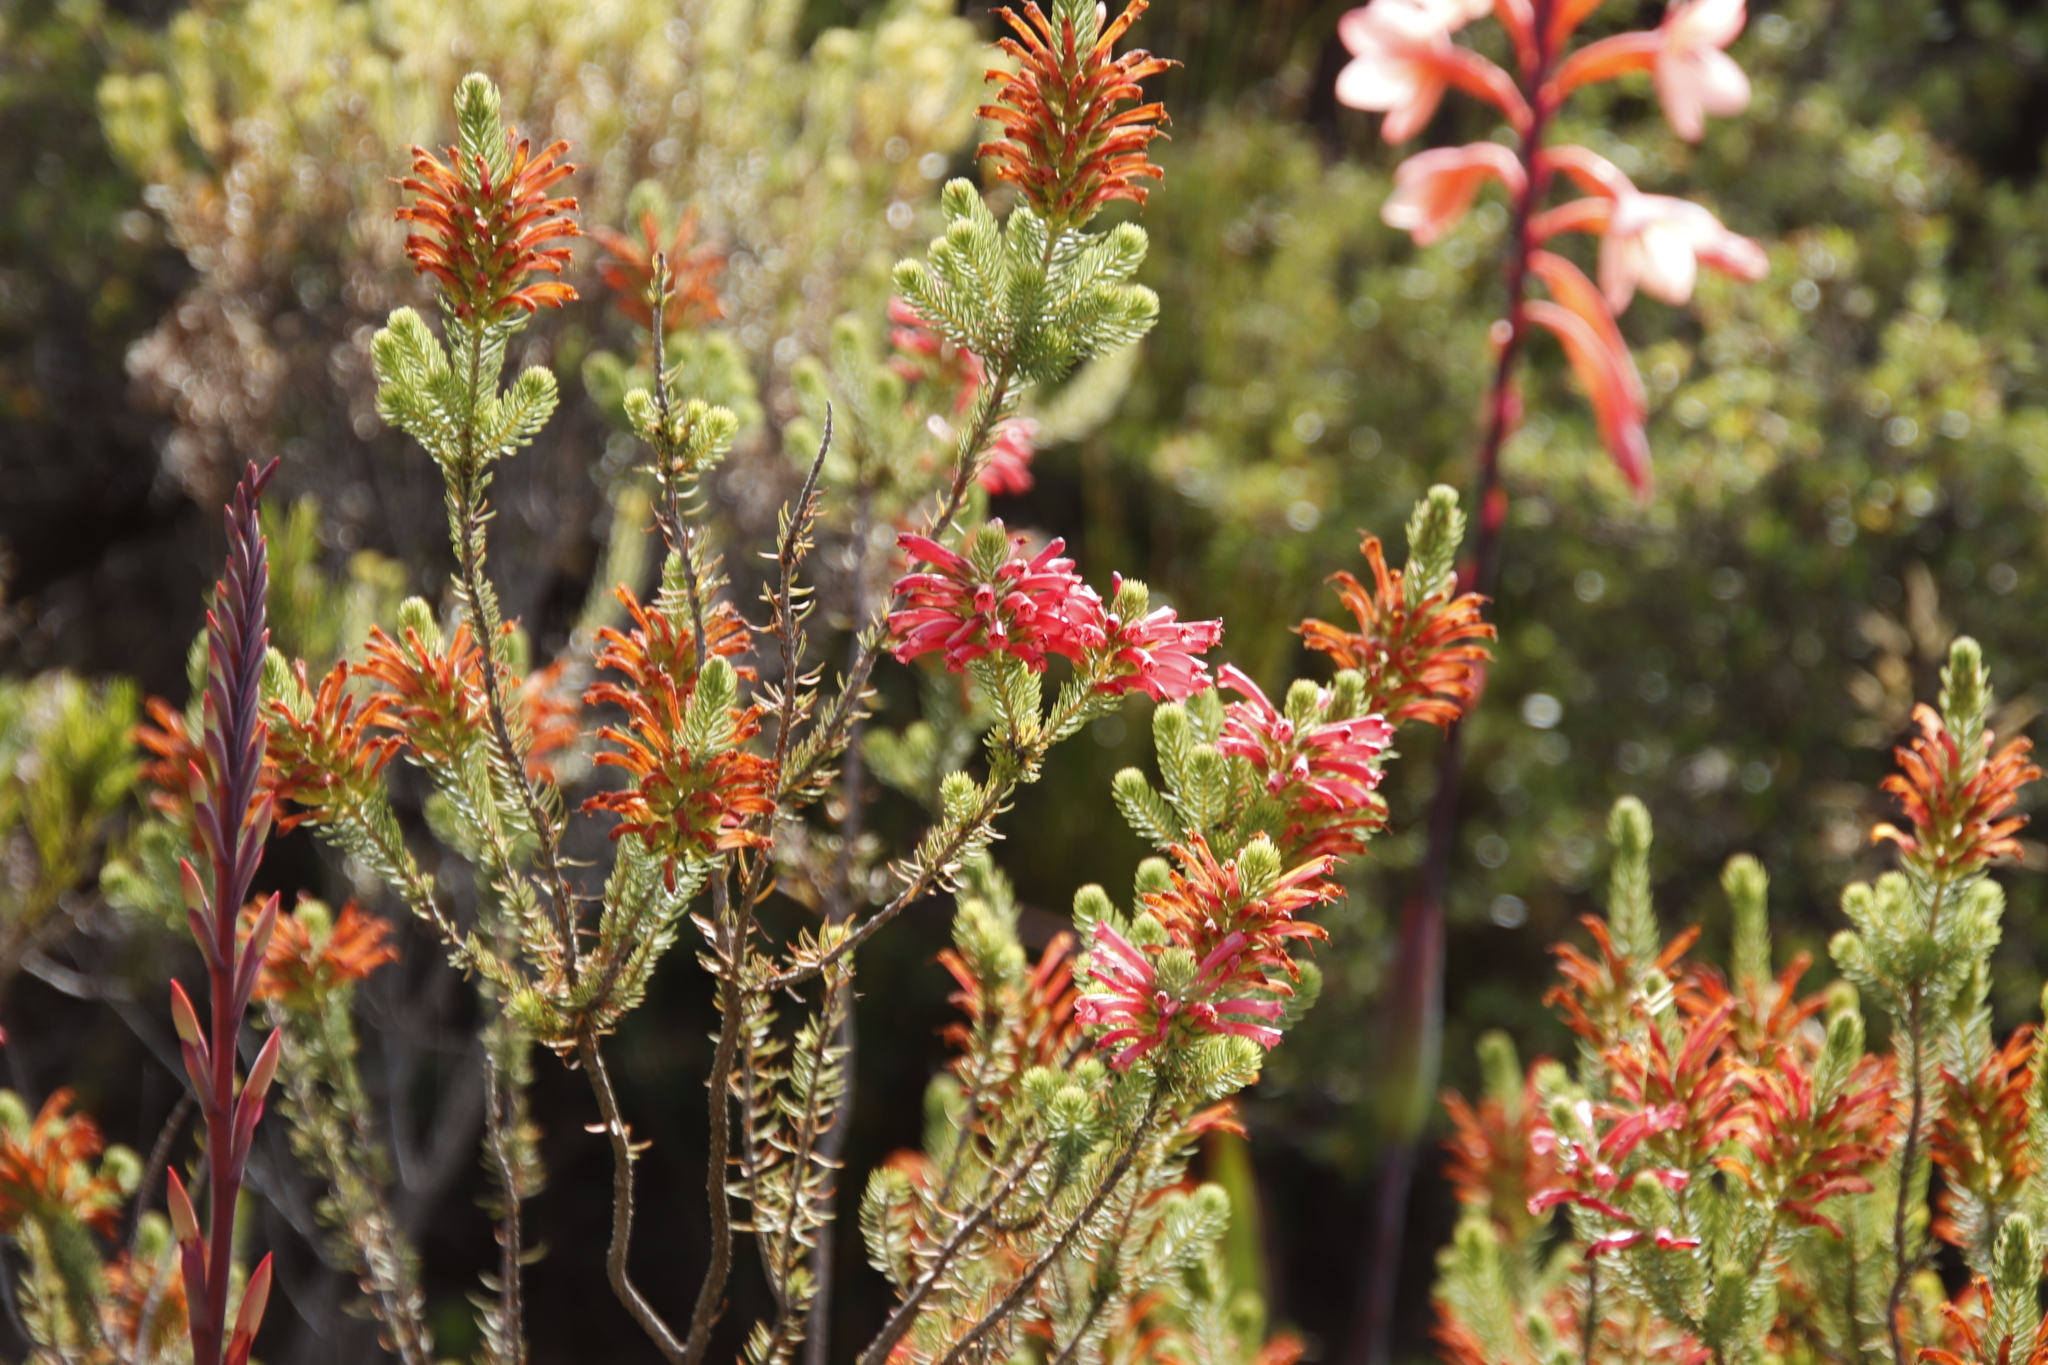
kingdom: Plantae
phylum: Tracheophyta
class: Magnoliopsida
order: Ericales
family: Ericaceae
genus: Erica
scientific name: Erica abietina
